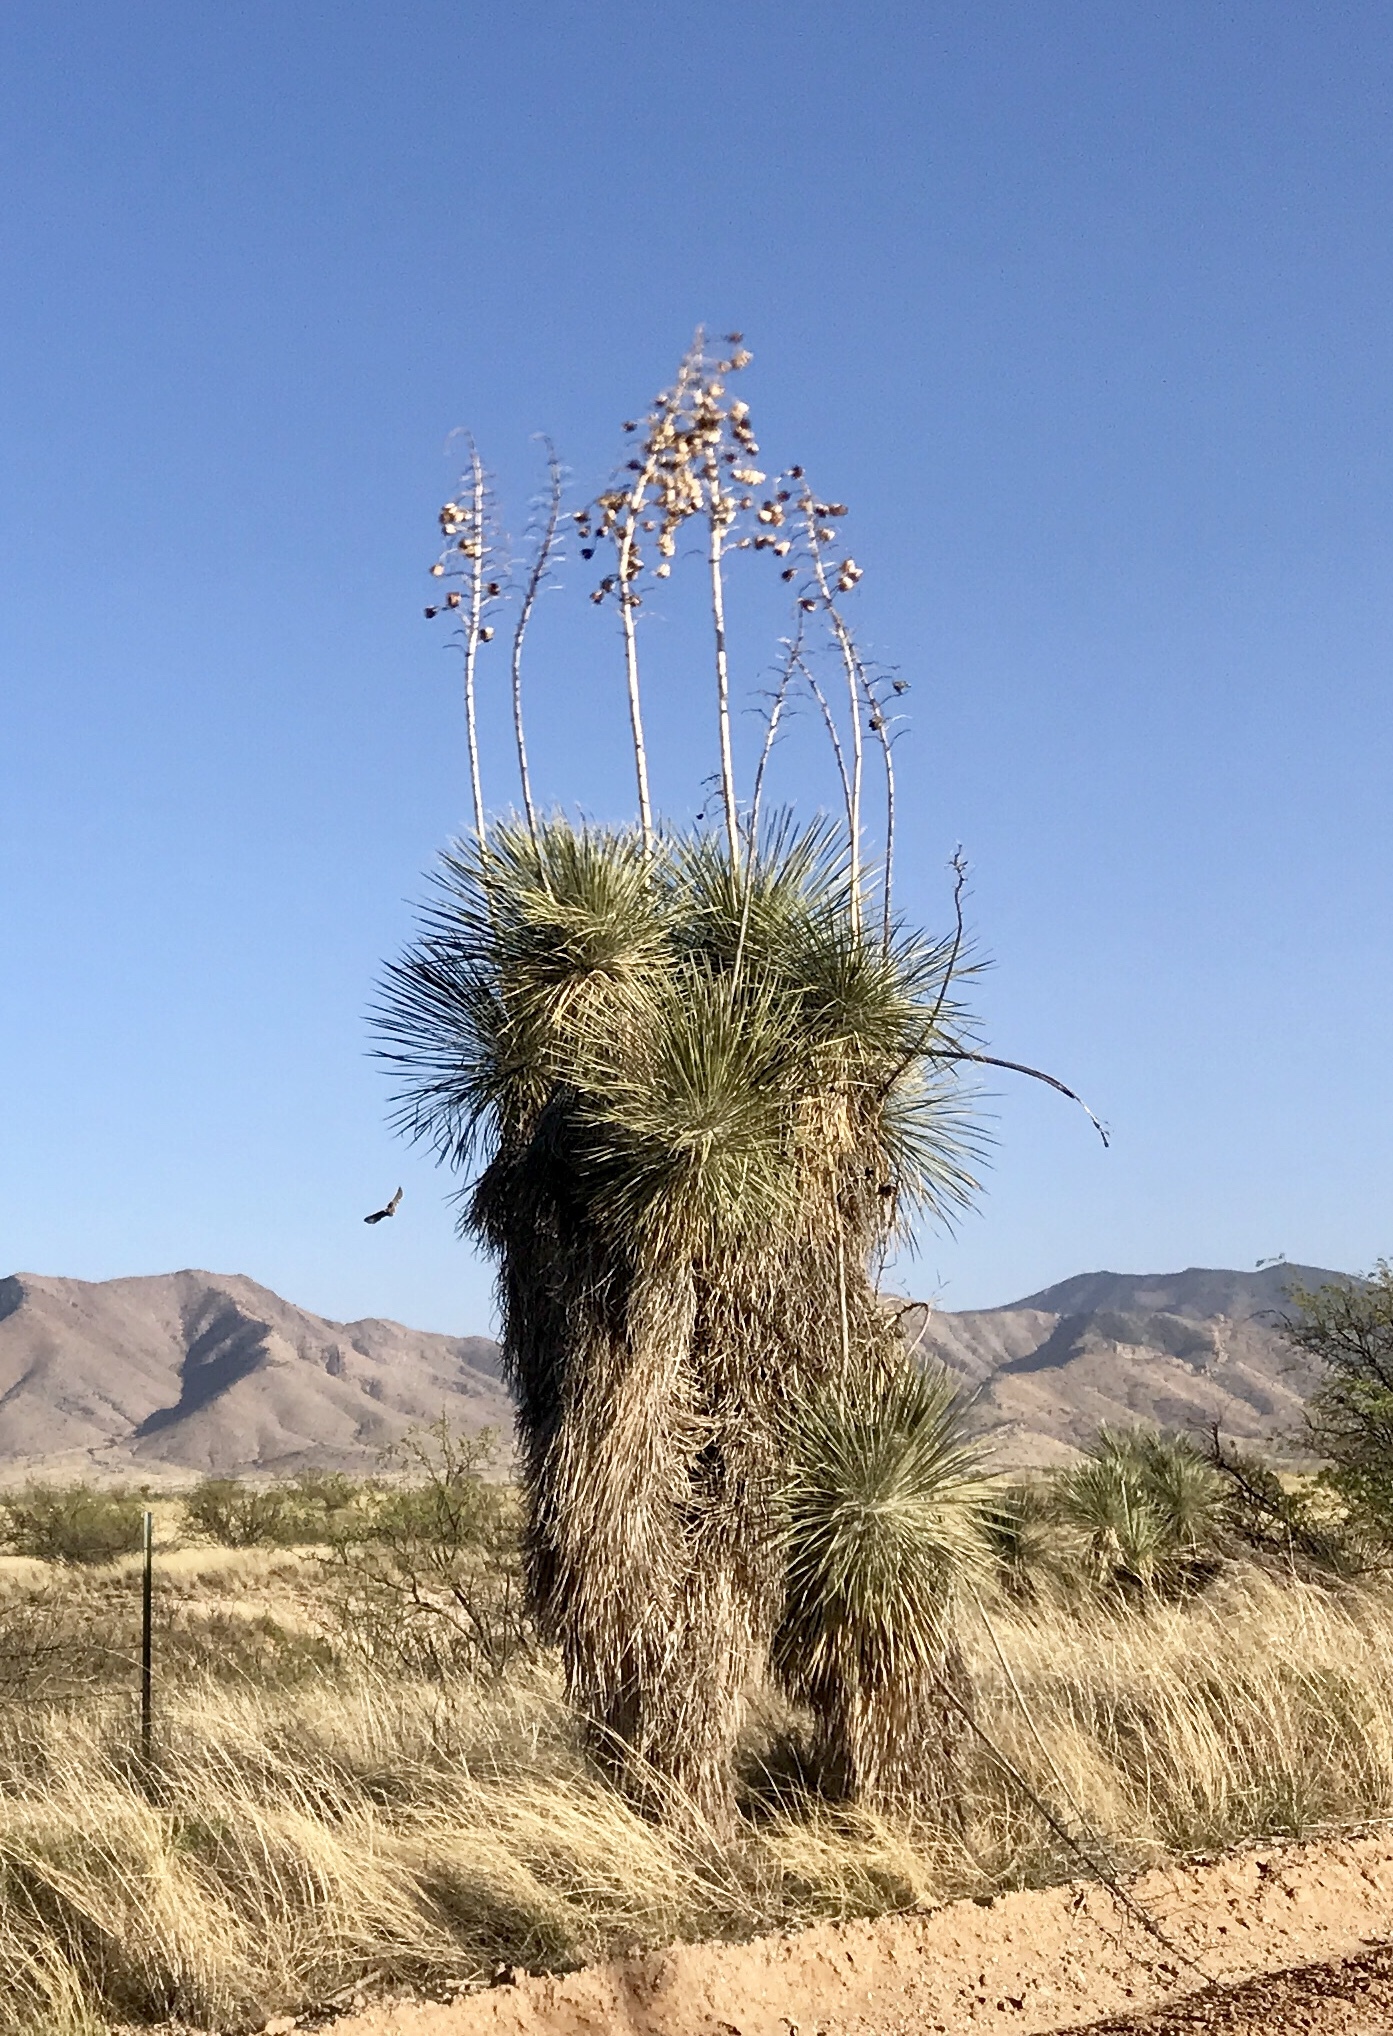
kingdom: Plantae
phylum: Tracheophyta
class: Liliopsida
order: Asparagales
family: Asparagaceae
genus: Yucca
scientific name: Yucca elata
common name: Palmella
